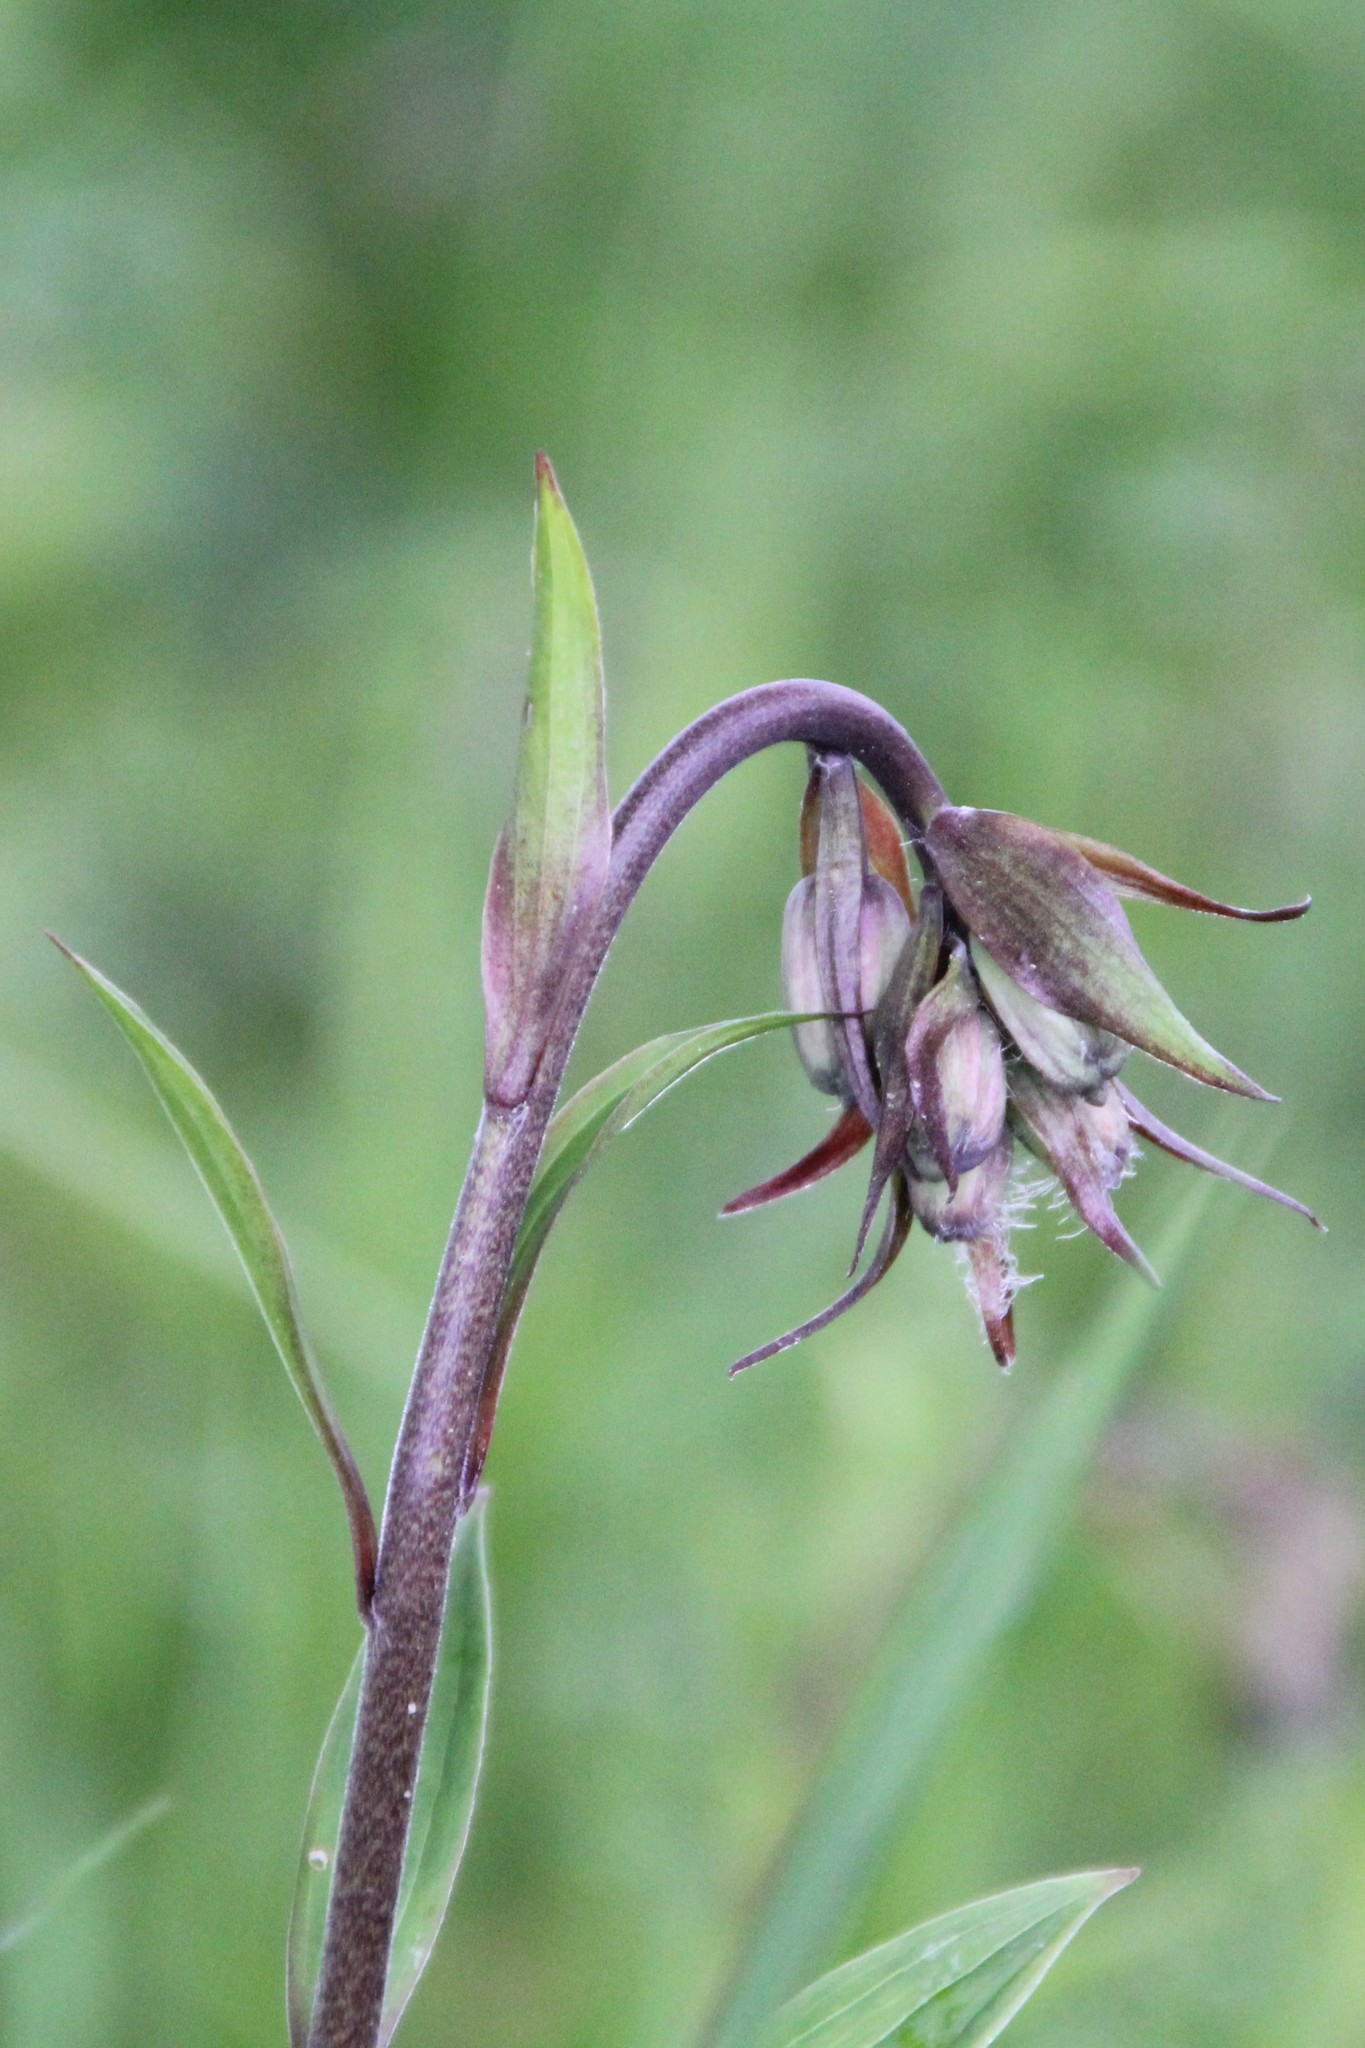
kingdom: Plantae
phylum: Tracheophyta
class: Liliopsida
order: Liliales
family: Liliaceae
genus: Lilium
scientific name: Lilium martagon
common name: Martagon lily
